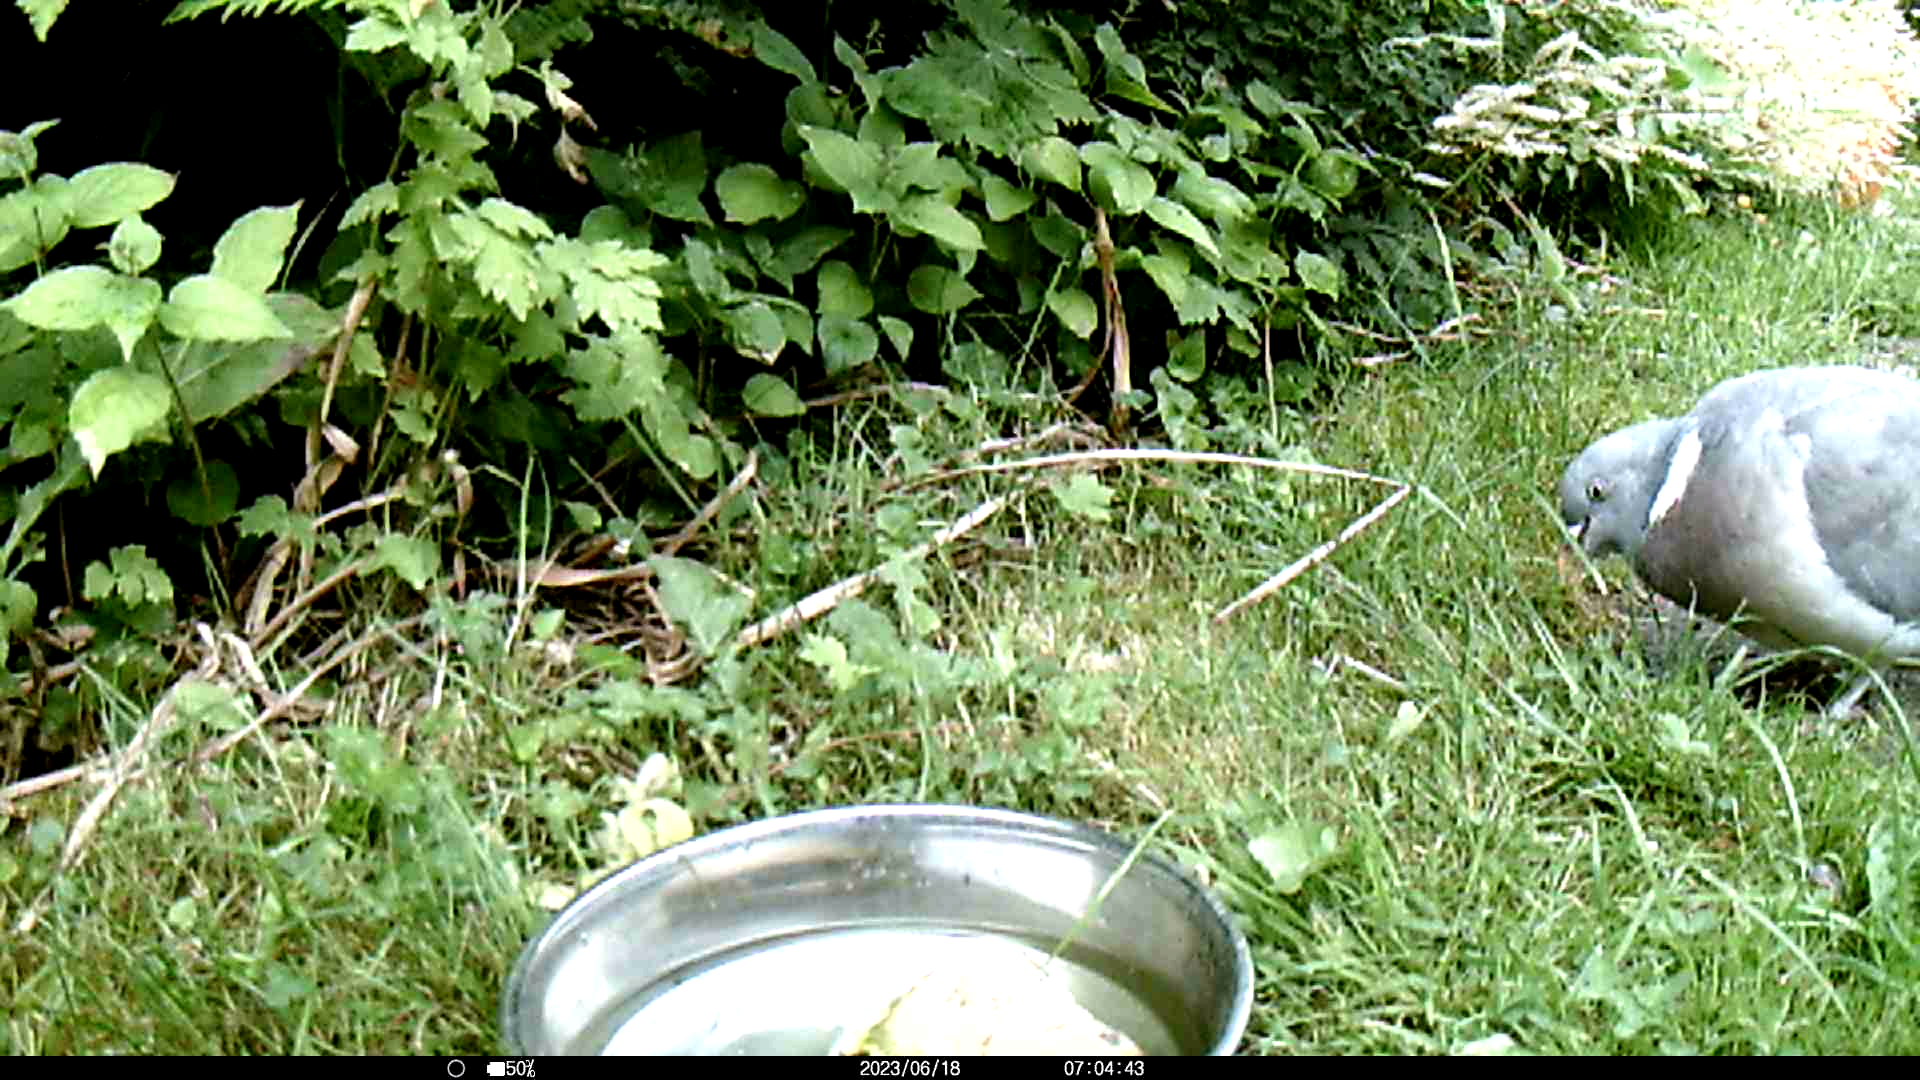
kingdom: Animalia
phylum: Chordata
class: Aves
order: Columbiformes
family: Columbidae
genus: Columba
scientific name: Columba palumbus
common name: Common wood pigeon
